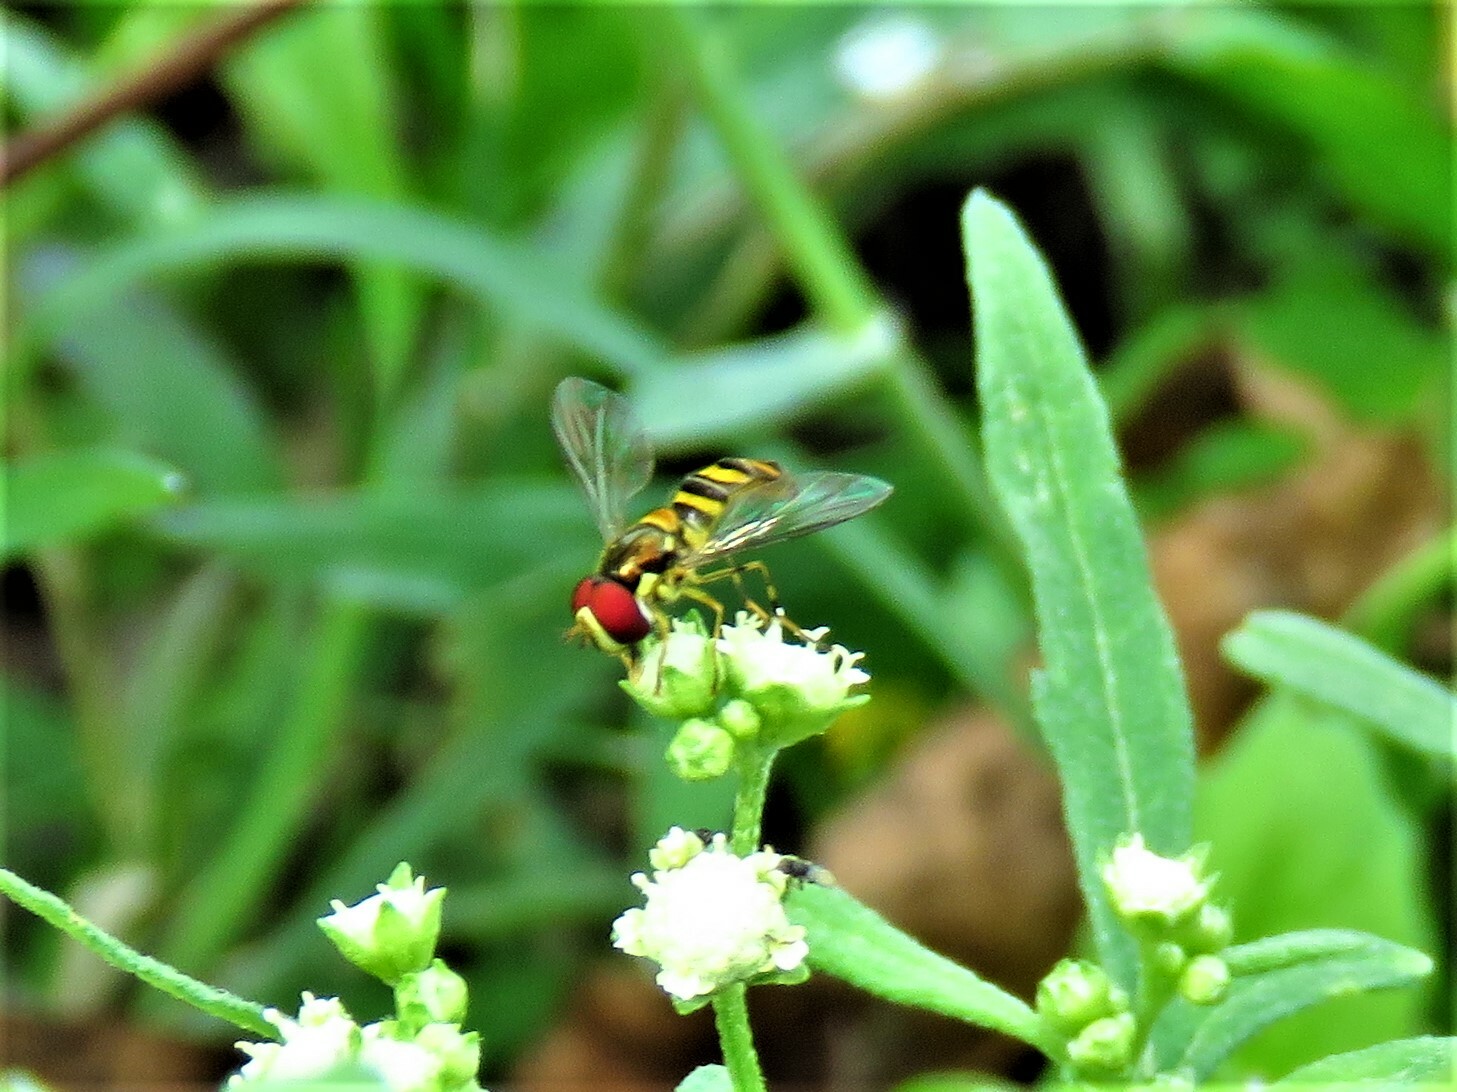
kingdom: Animalia
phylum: Arthropoda
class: Insecta
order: Diptera
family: Syrphidae
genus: Allograpta
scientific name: Allograpta obliqua
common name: Common oblique syrphid
